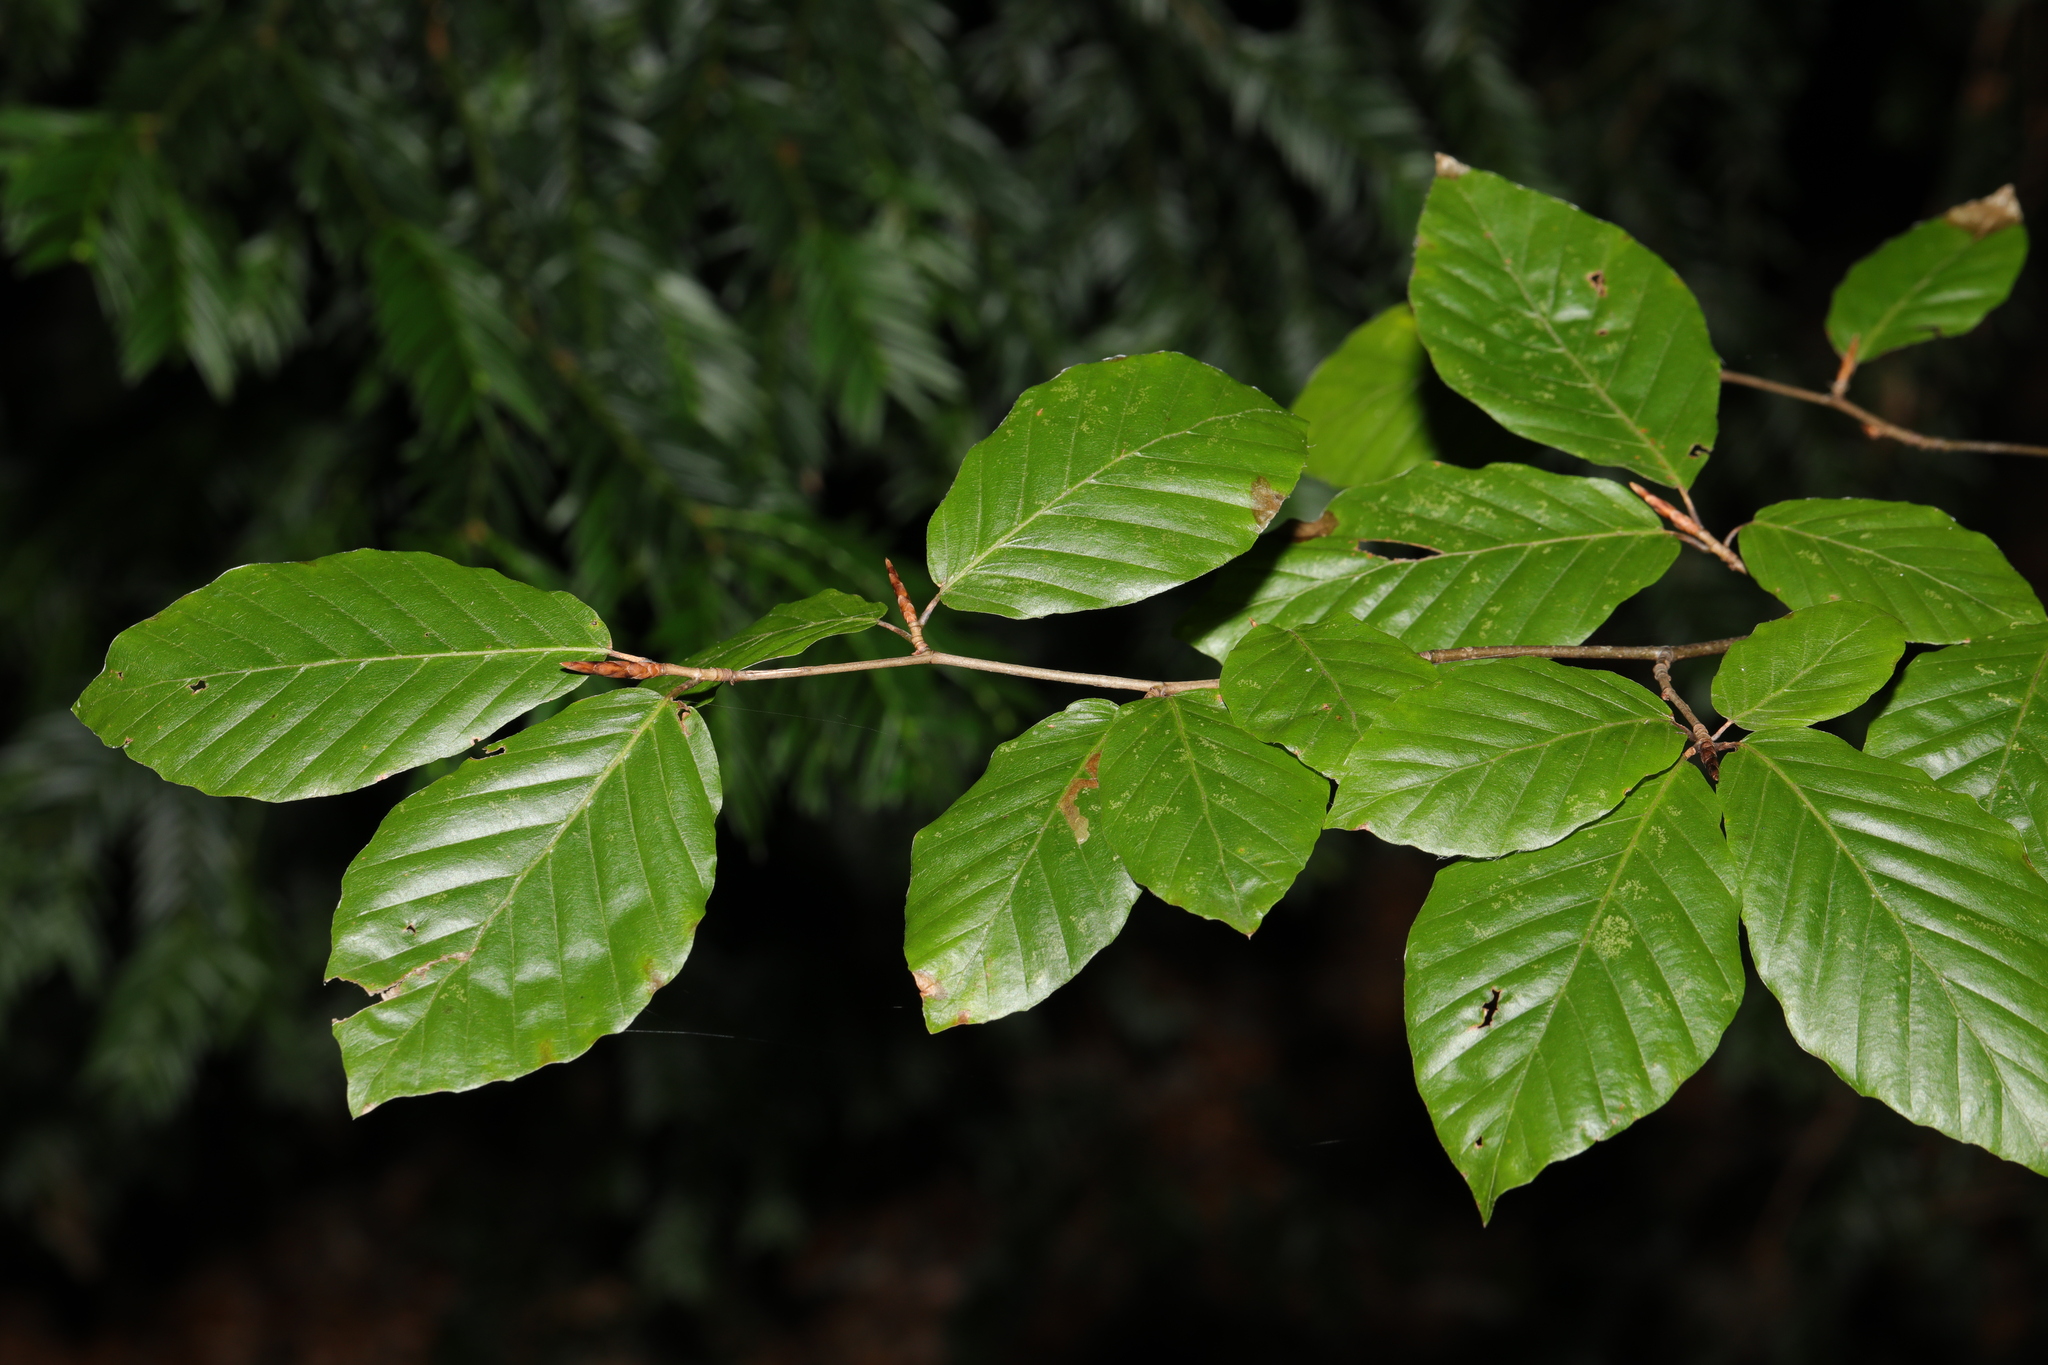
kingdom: Plantae
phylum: Tracheophyta
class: Magnoliopsida
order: Fagales
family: Fagaceae
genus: Fagus
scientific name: Fagus sylvatica
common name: Beech
